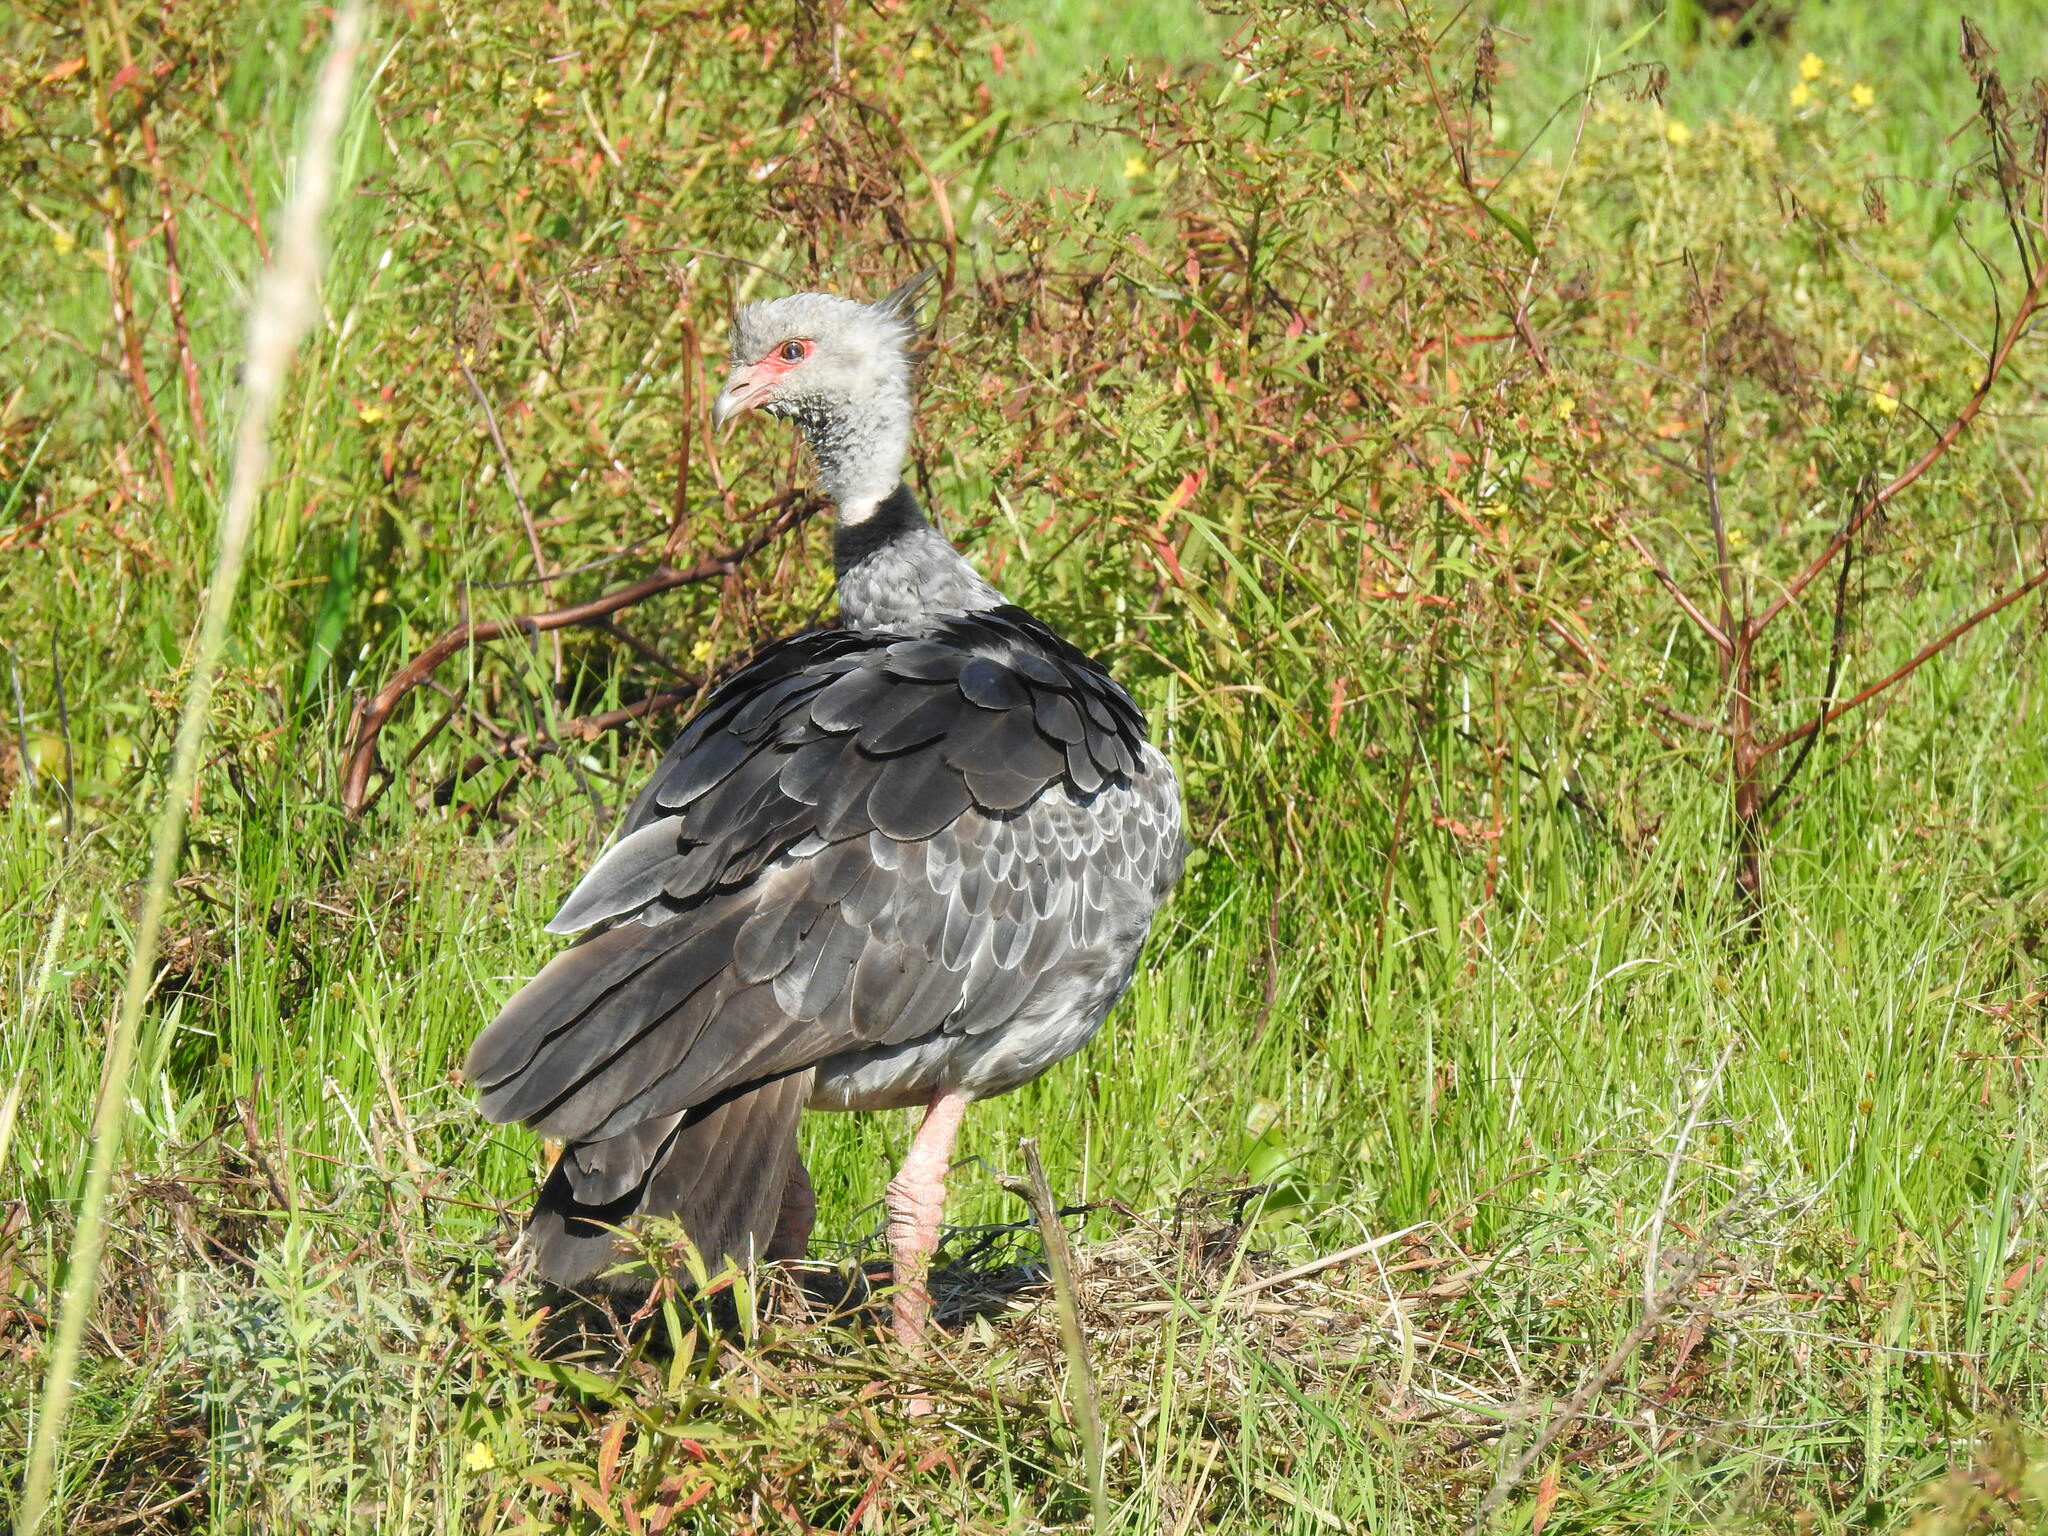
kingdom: Animalia
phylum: Chordata
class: Aves
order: Anseriformes
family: Anhimidae
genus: Chauna
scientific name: Chauna torquata
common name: Southern screamer
